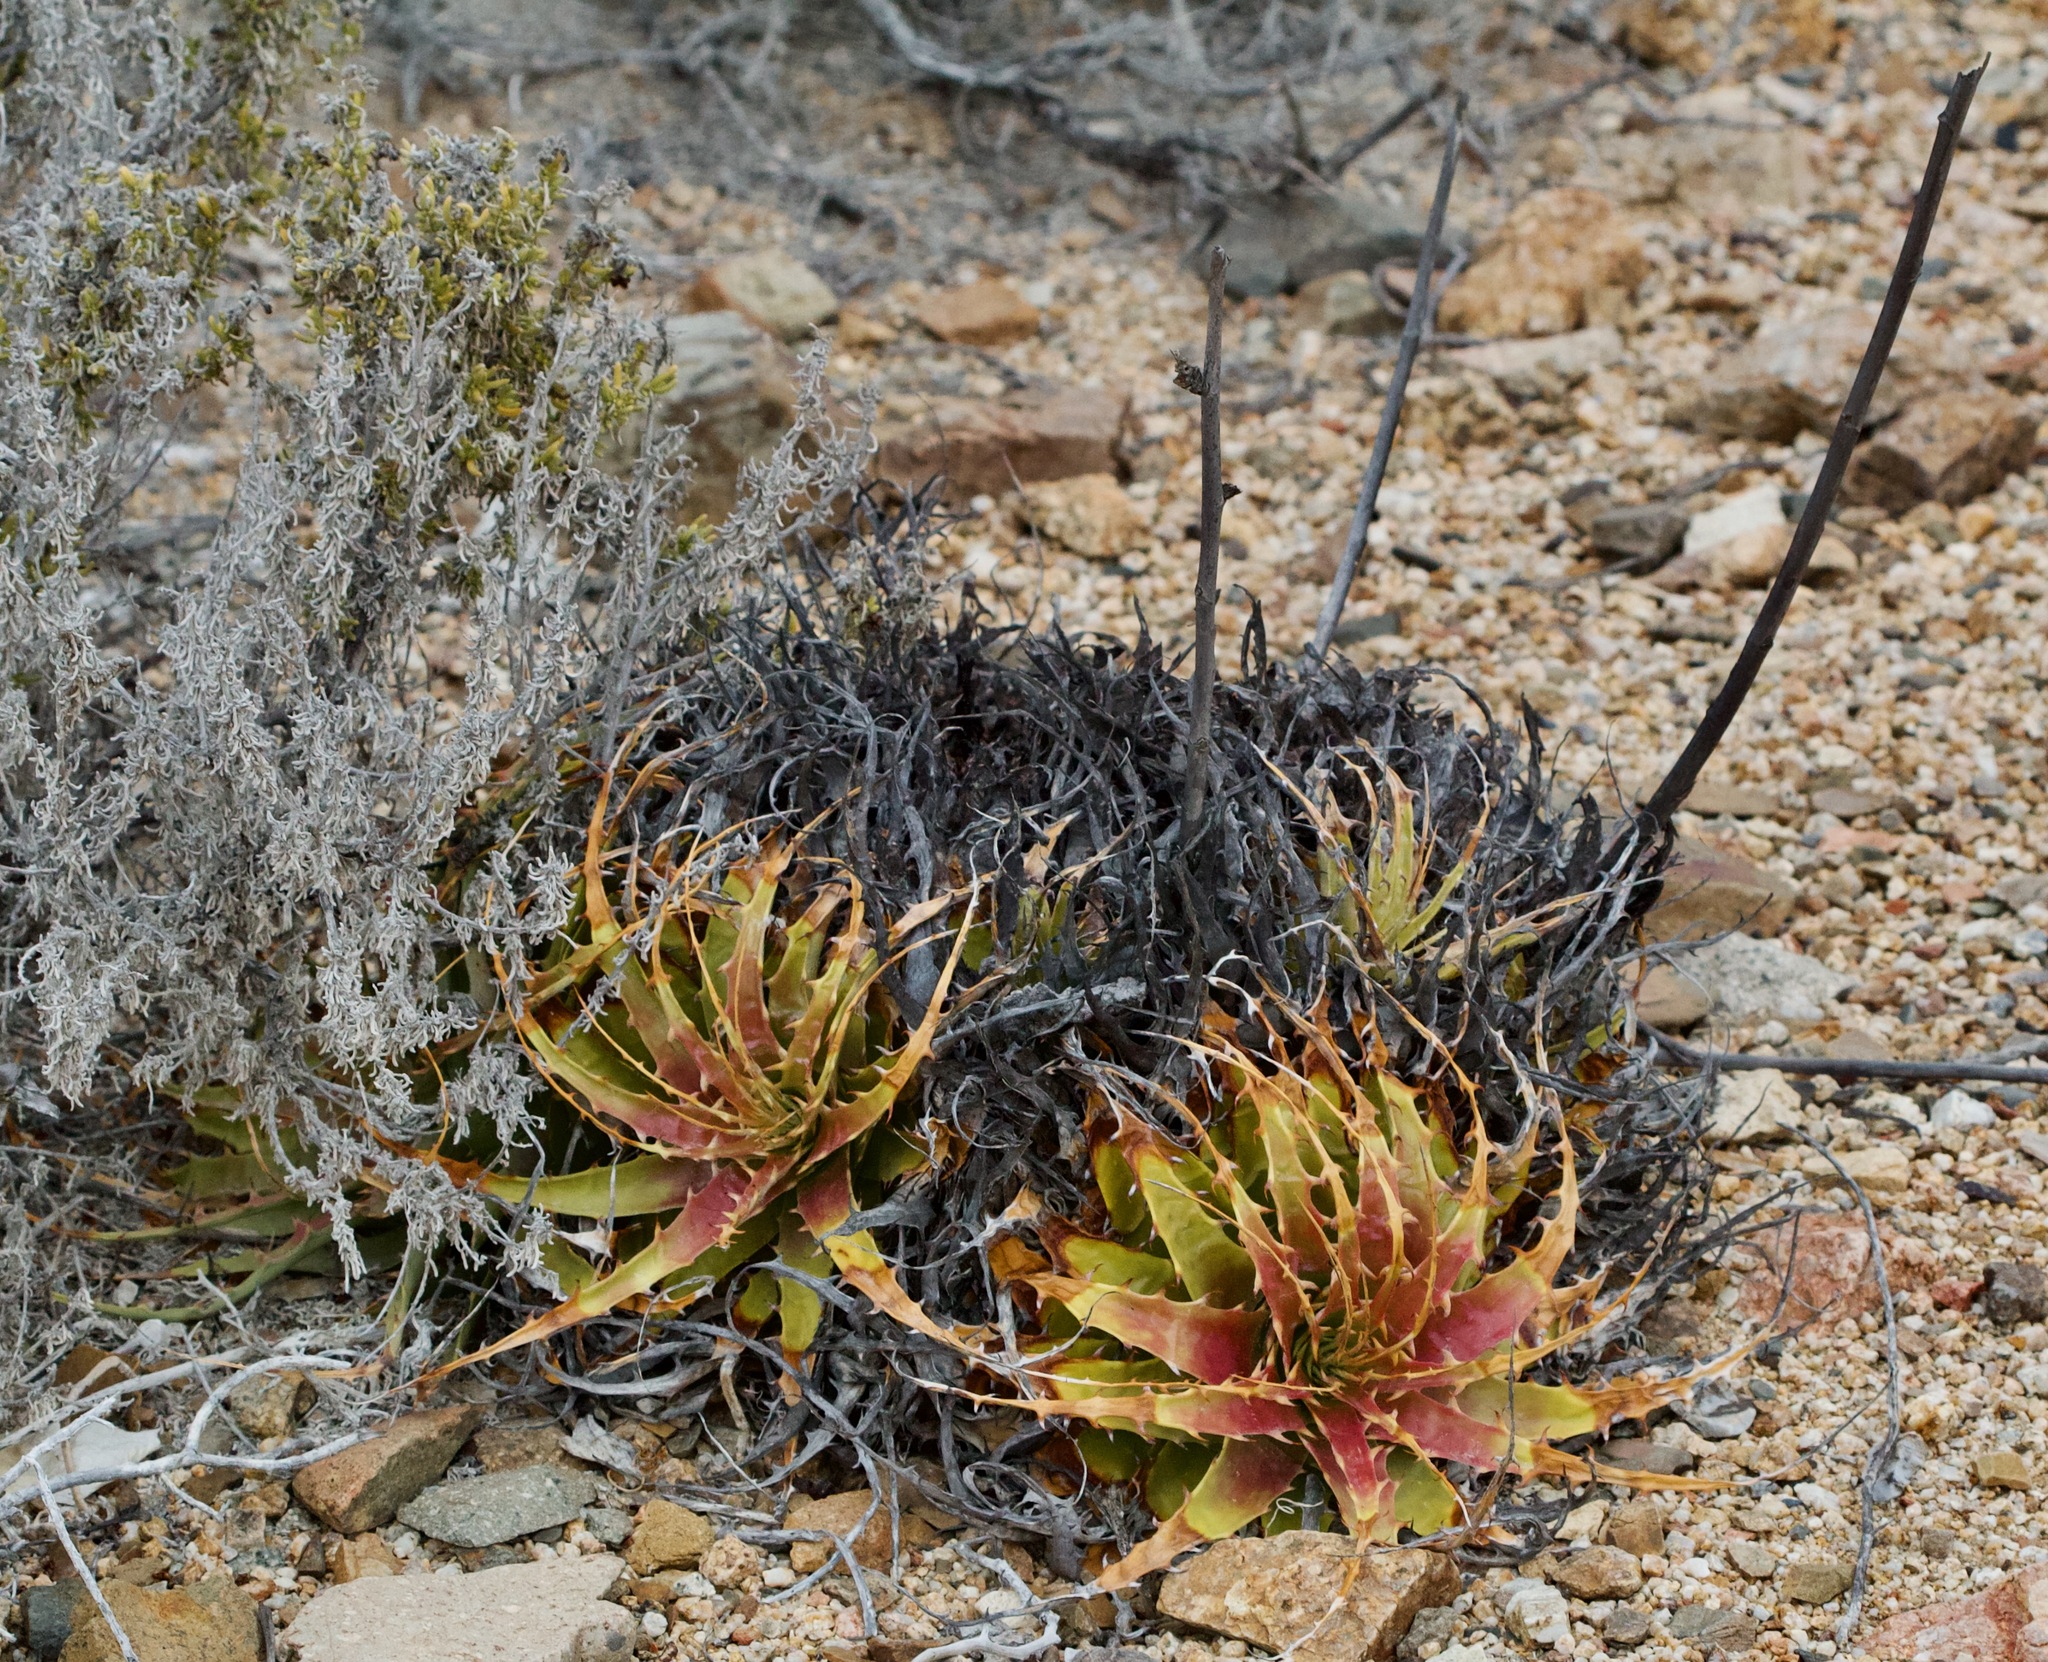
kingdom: Plantae
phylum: Tracheophyta
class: Liliopsida
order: Poales
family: Bromeliaceae
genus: Deuterocohnia
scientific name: Deuterocohnia chrysantha
